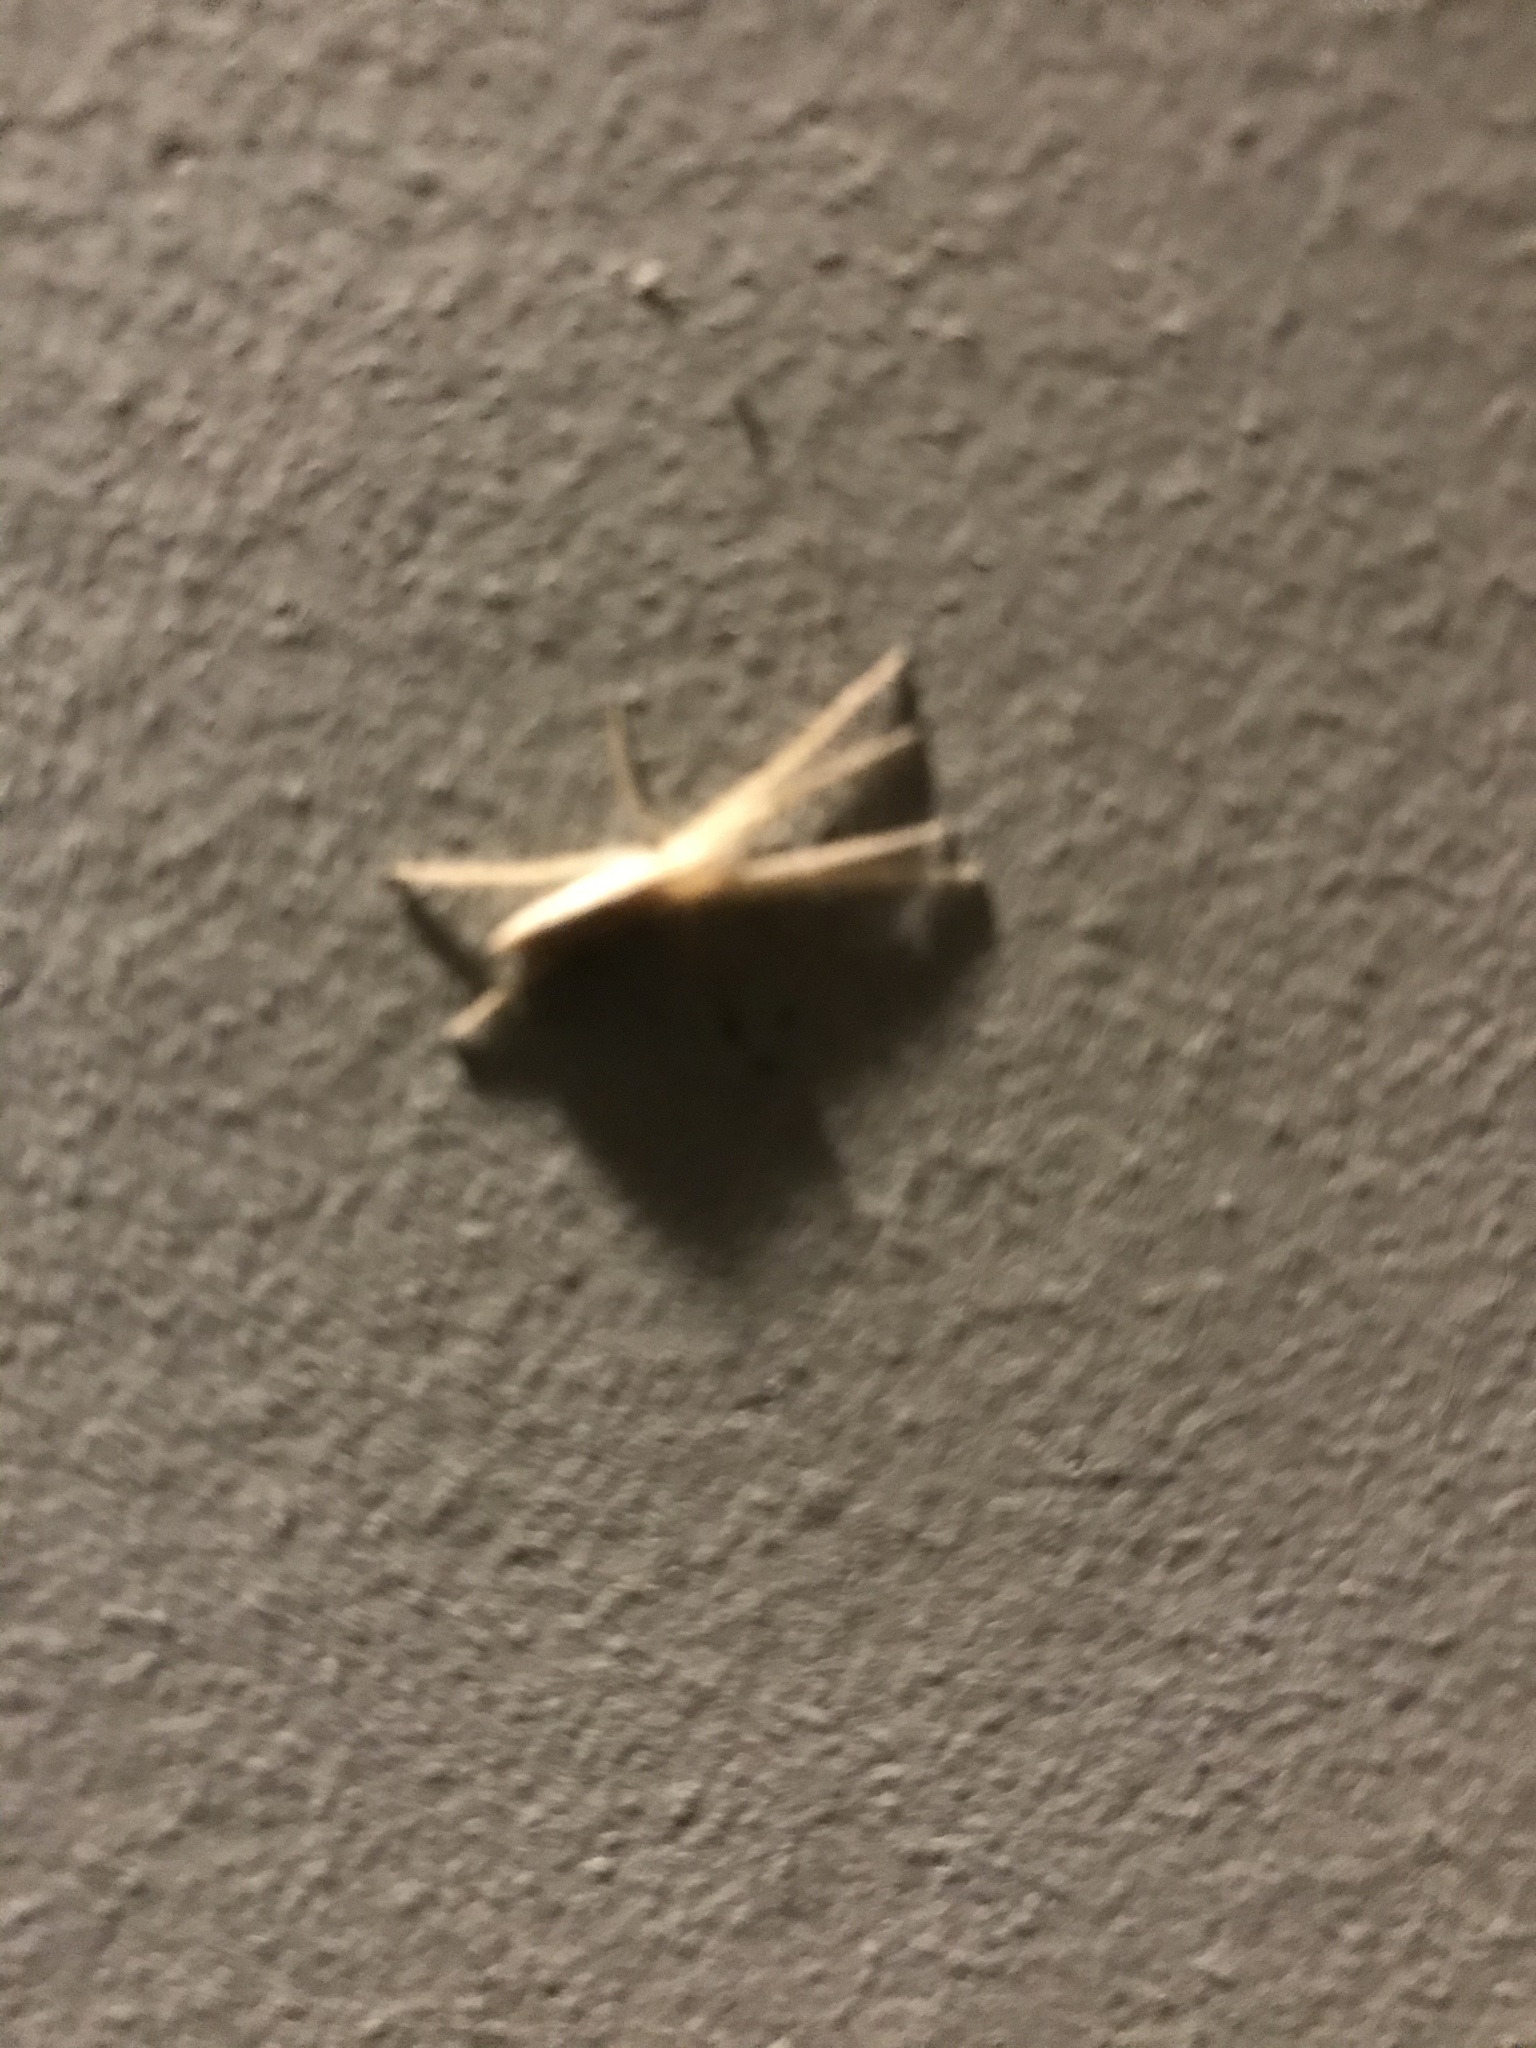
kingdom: Animalia
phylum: Arthropoda
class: Arachnida
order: Araneae
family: Philodromidae
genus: Tibellus
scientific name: Tibellus
